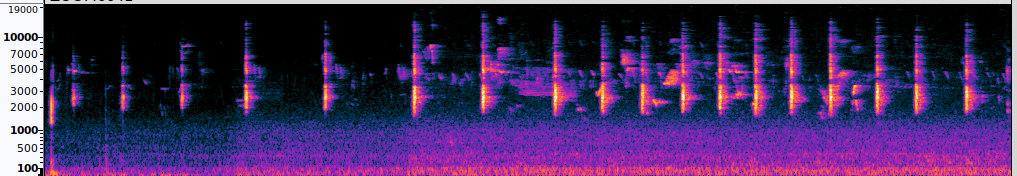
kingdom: Animalia
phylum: Chordata
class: Aves
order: Gruiformes
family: Rallidae
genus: Rallus
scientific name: Rallus elegans
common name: King rail
